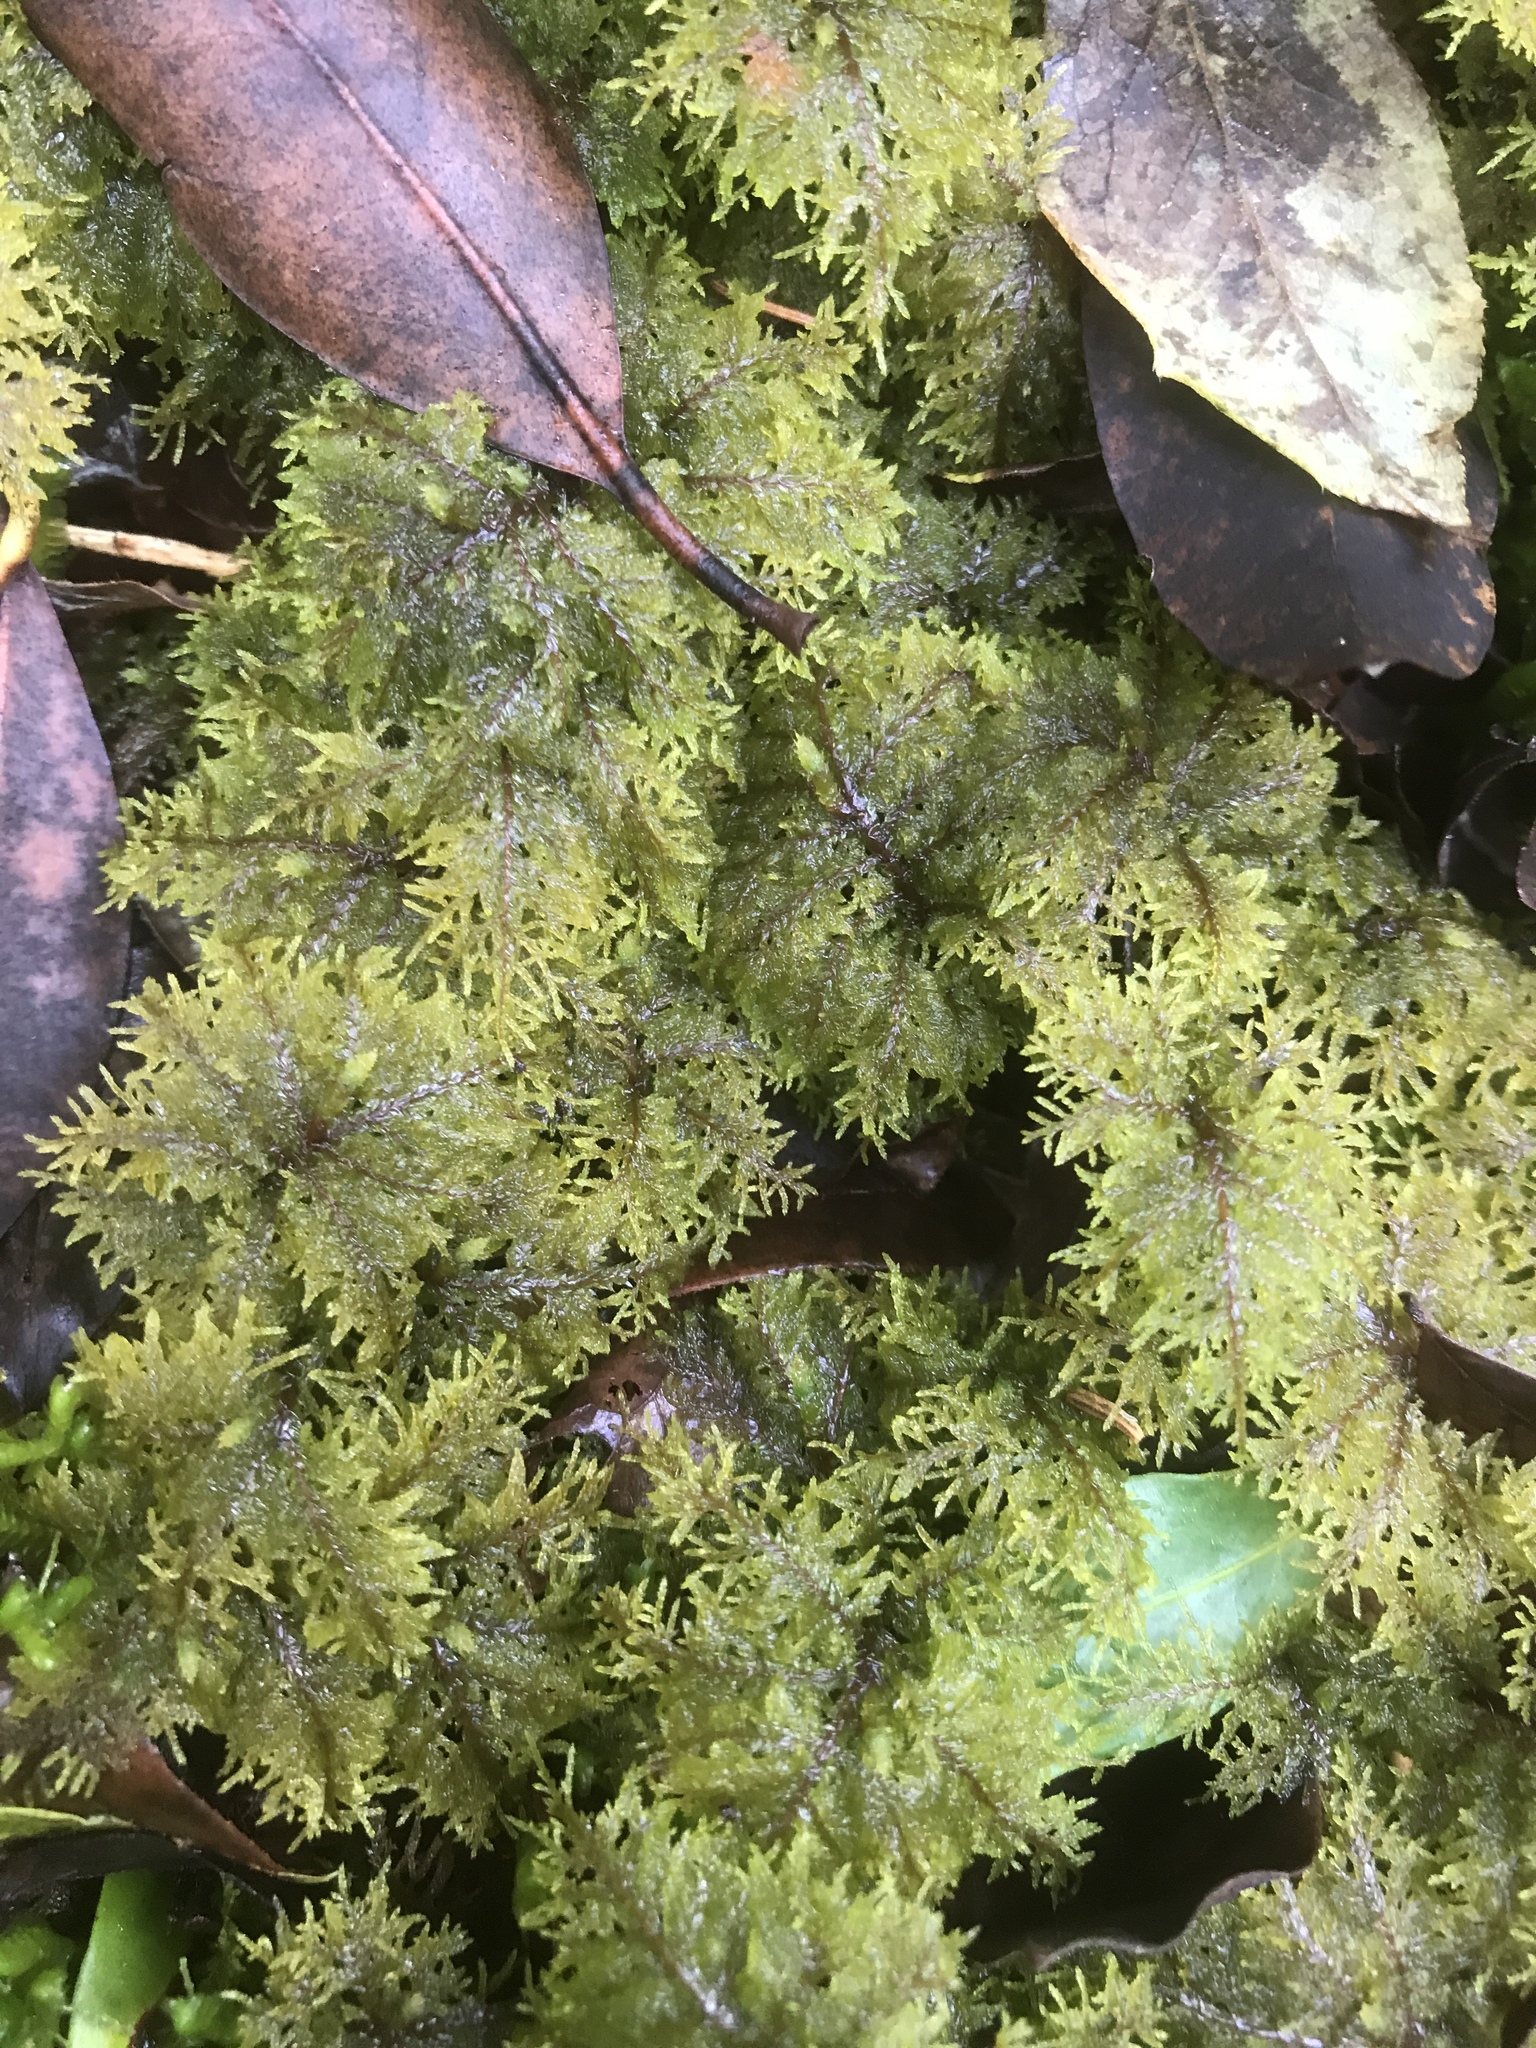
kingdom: Plantae
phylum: Bryophyta
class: Bryopsida
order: Hypnales
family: Hylocomiaceae
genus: Hylocomium
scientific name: Hylocomium splendens
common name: Stairstep moss
